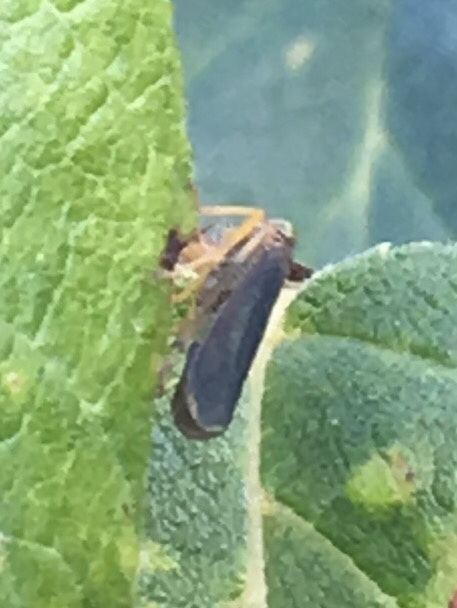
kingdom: Animalia
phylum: Arthropoda
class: Insecta
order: Hemiptera
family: Cicadellidae
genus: Jikradia
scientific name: Jikradia olitoria
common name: Coppery leafhopper
